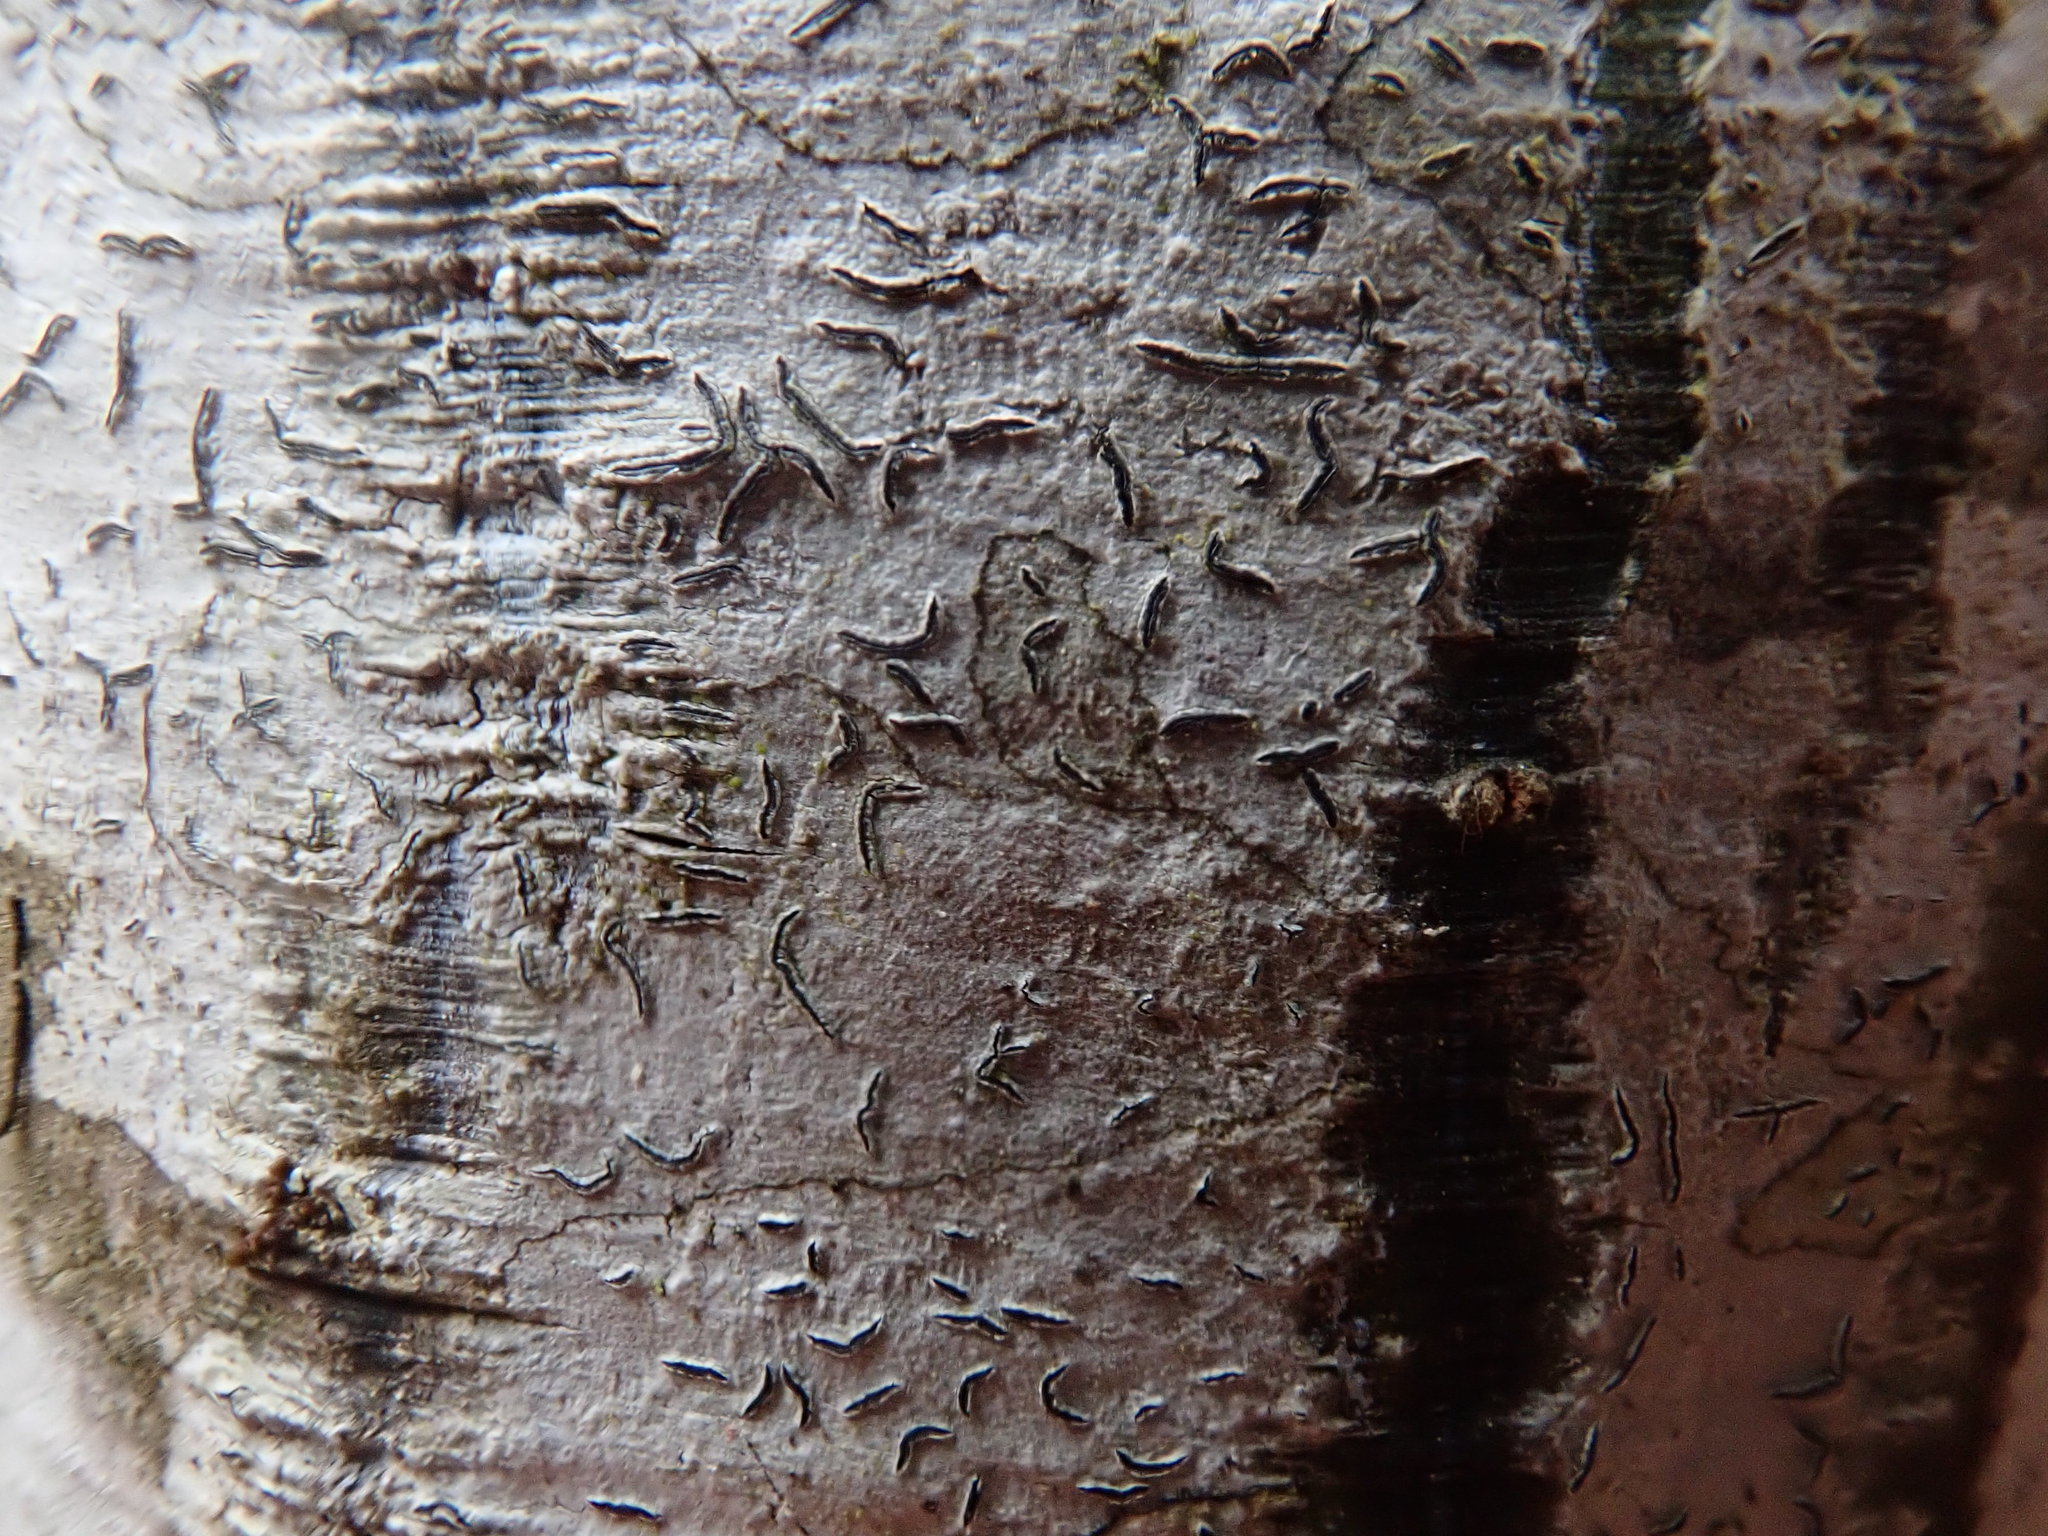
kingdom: Fungi
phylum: Ascomycota
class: Lecanoromycetes
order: Ostropales
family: Graphidaceae
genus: Graphis
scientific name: Graphis scripta
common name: Script lichen
